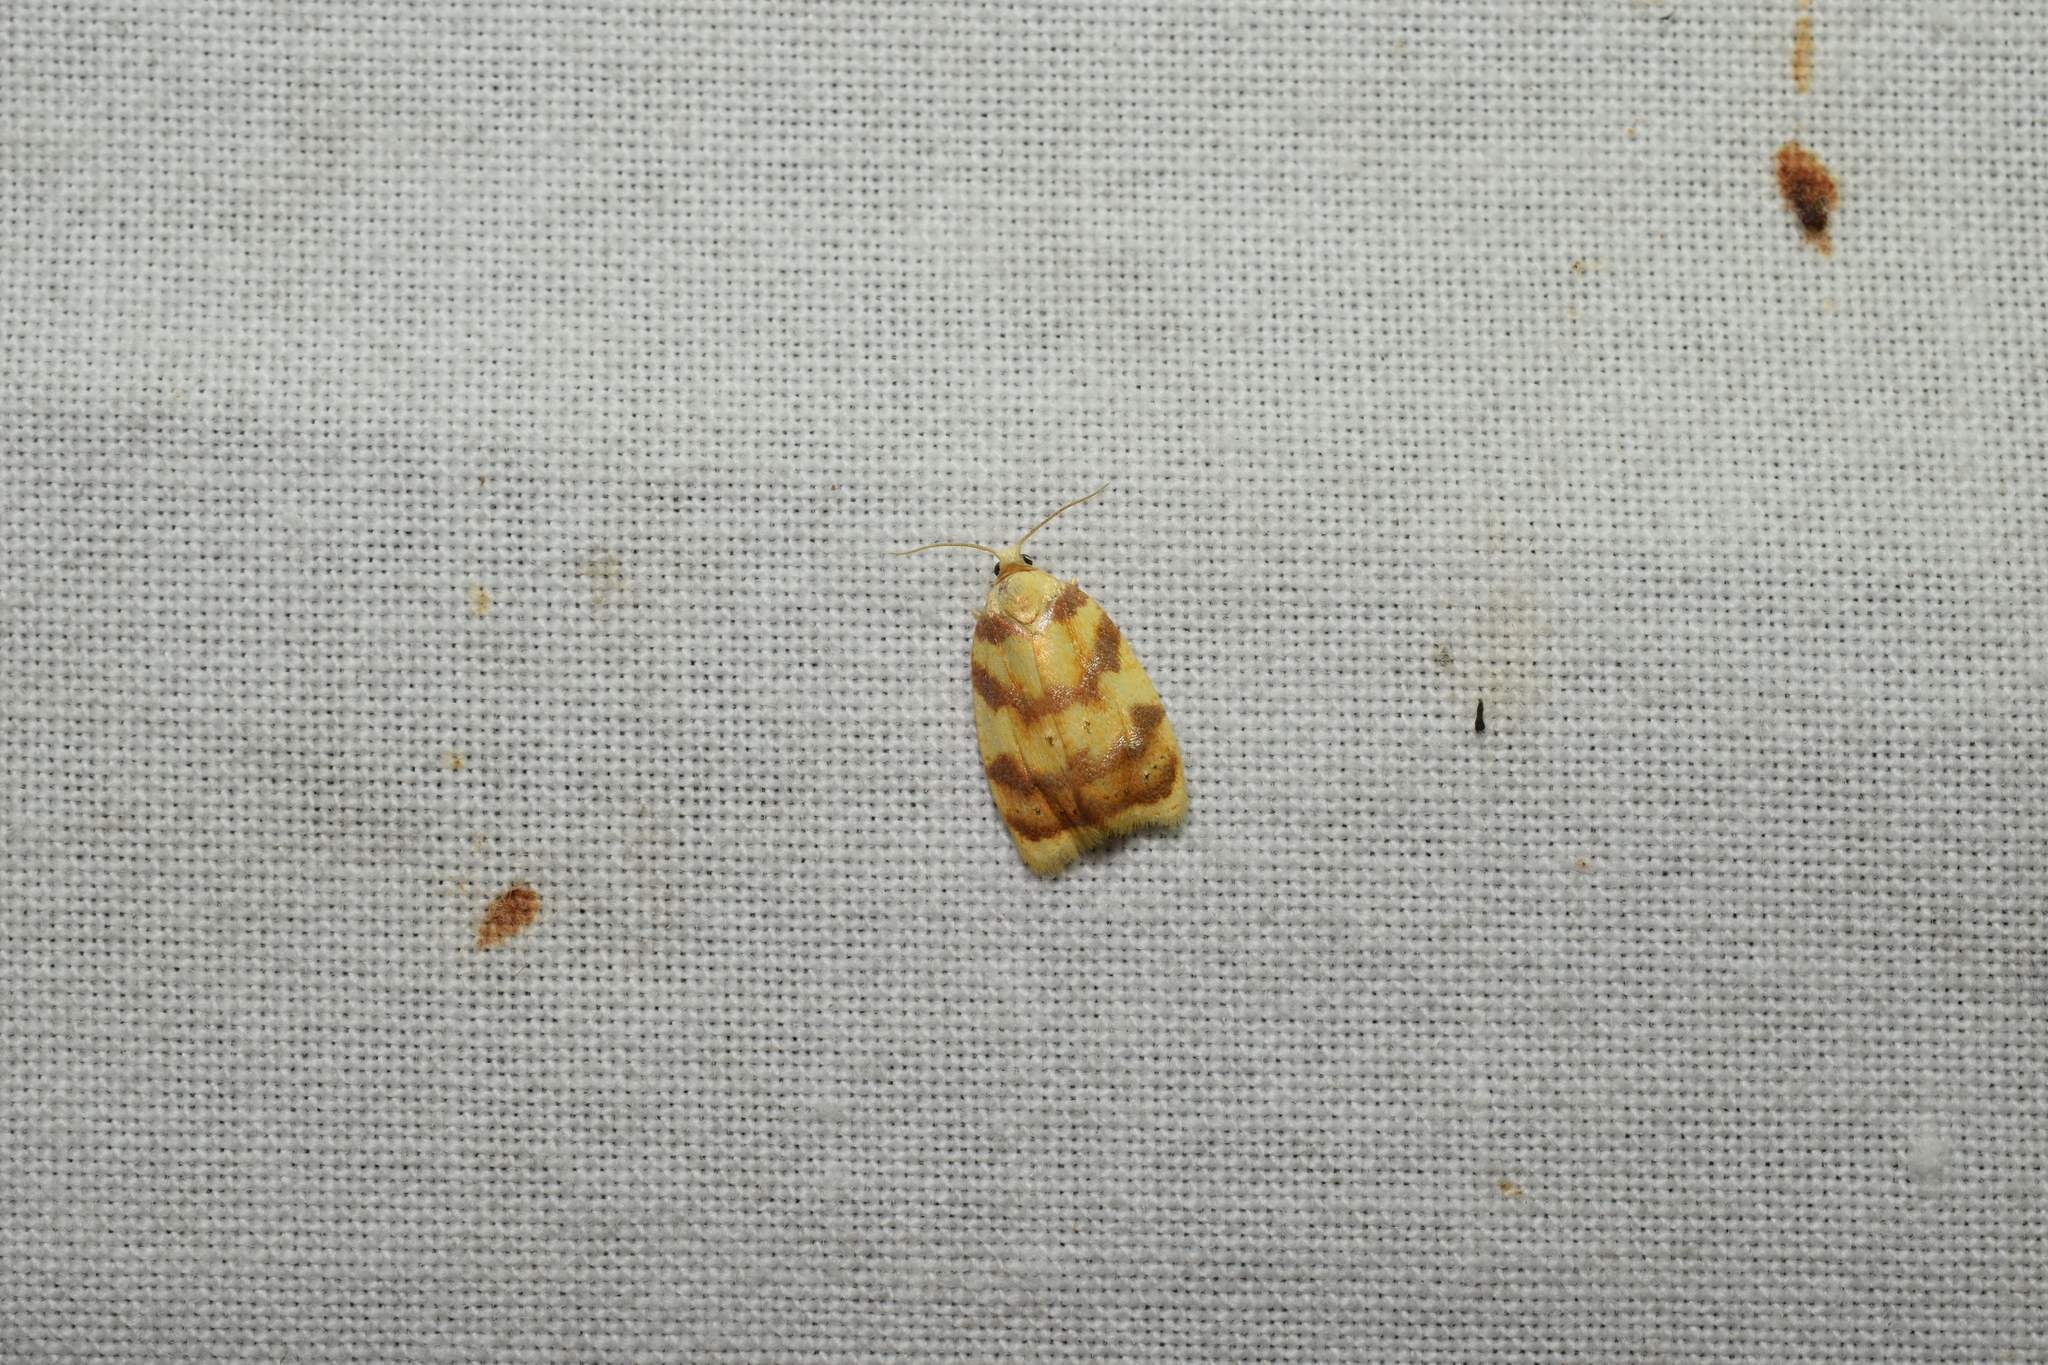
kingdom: Animalia
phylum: Arthropoda
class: Insecta
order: Lepidoptera
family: Tortricidae
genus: Acleris
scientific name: Acleris leechi
